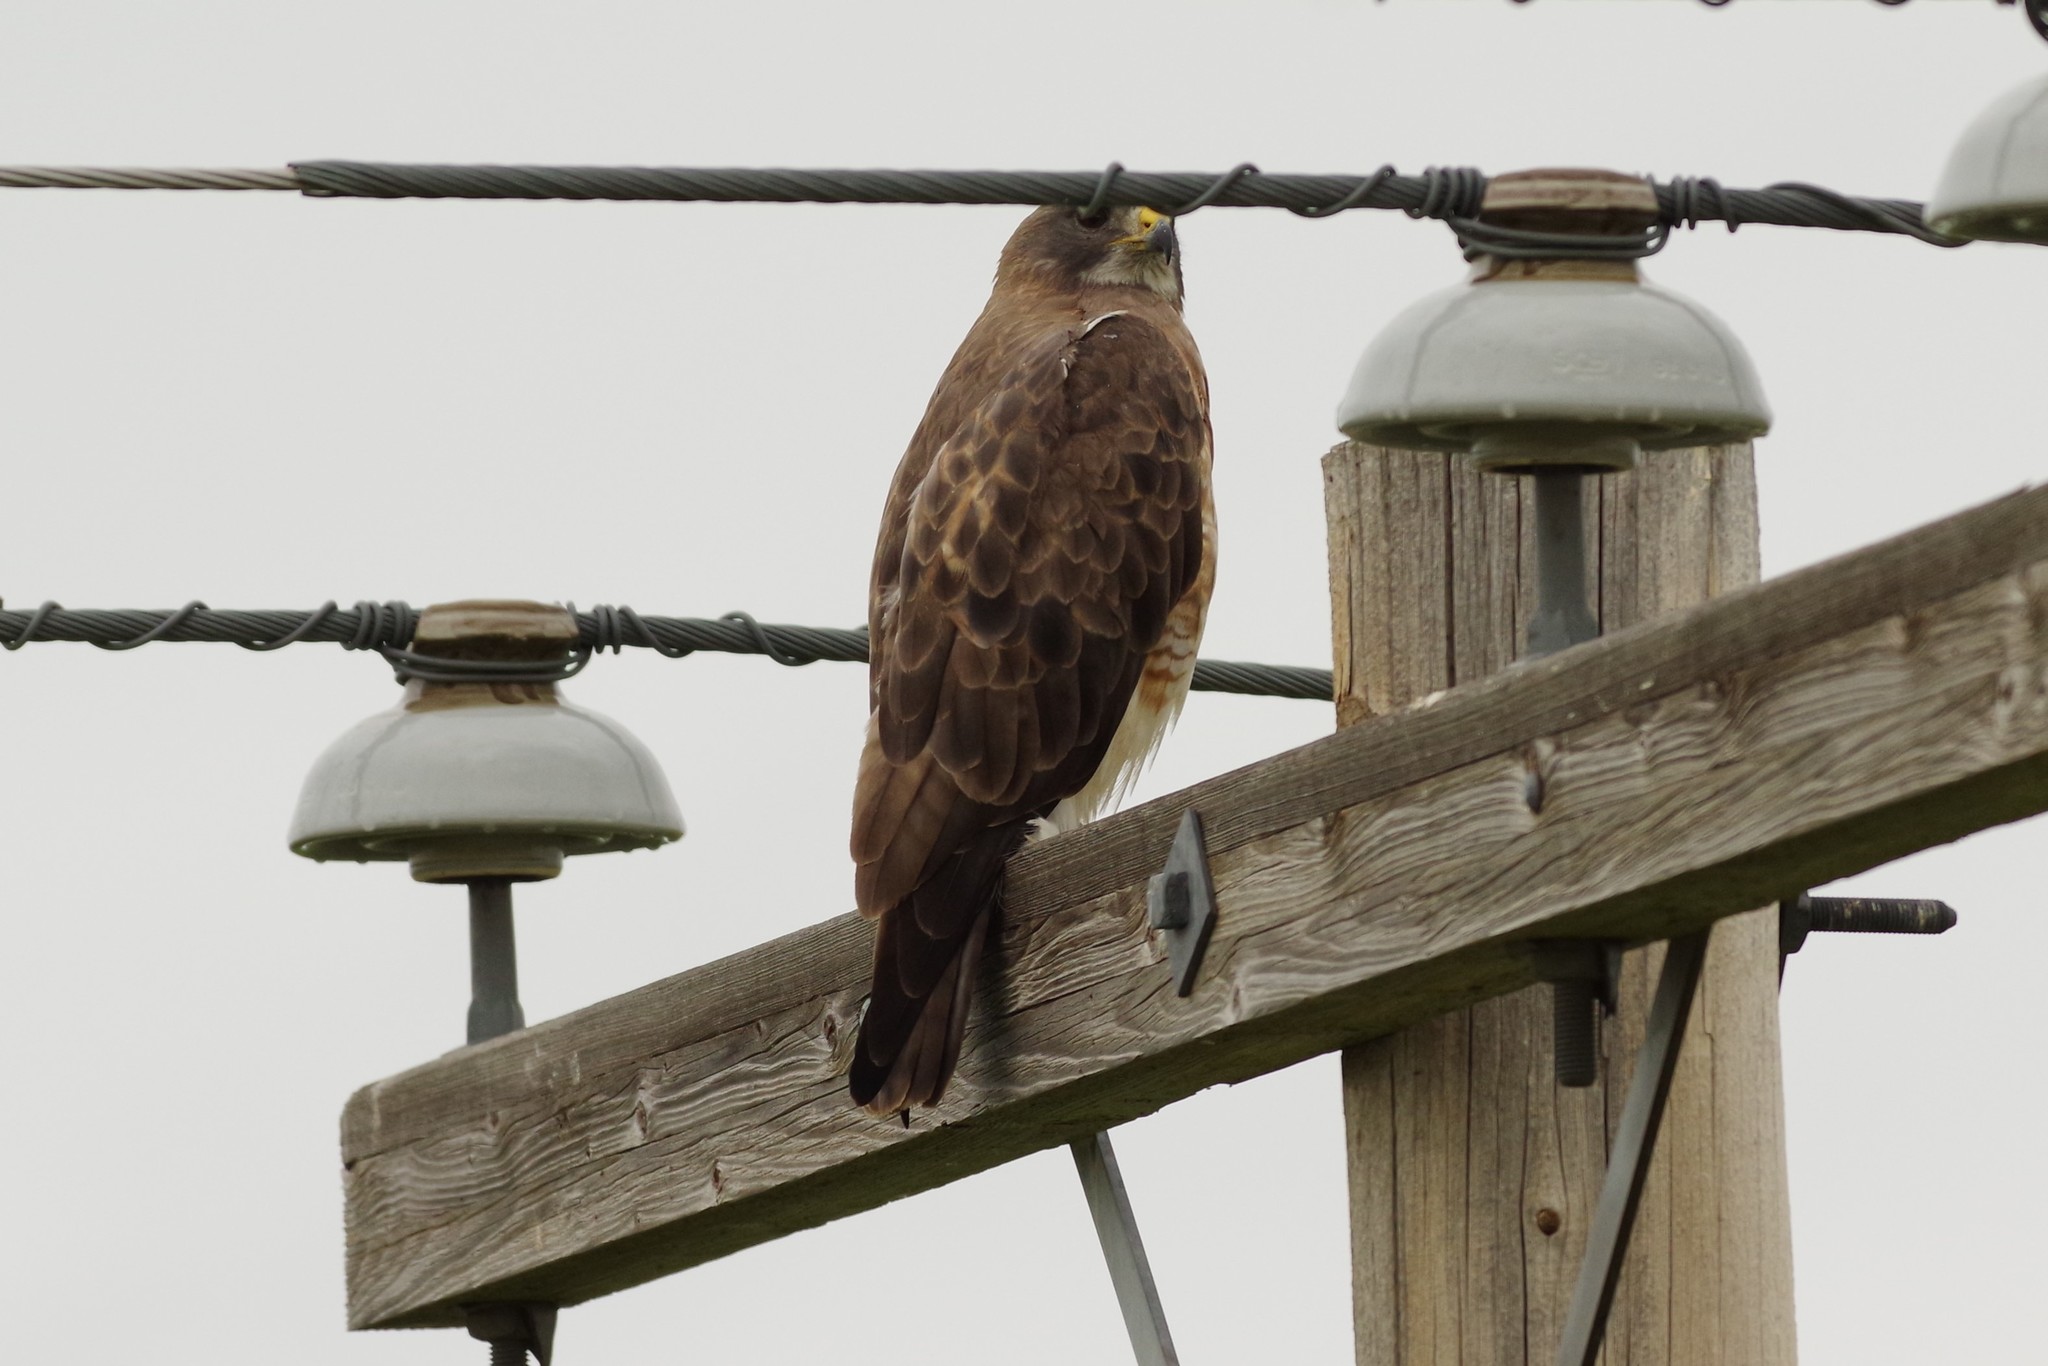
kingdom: Animalia
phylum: Chordata
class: Aves
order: Accipitriformes
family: Accipitridae
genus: Buteo
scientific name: Buteo swainsoni
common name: Swainson's hawk
